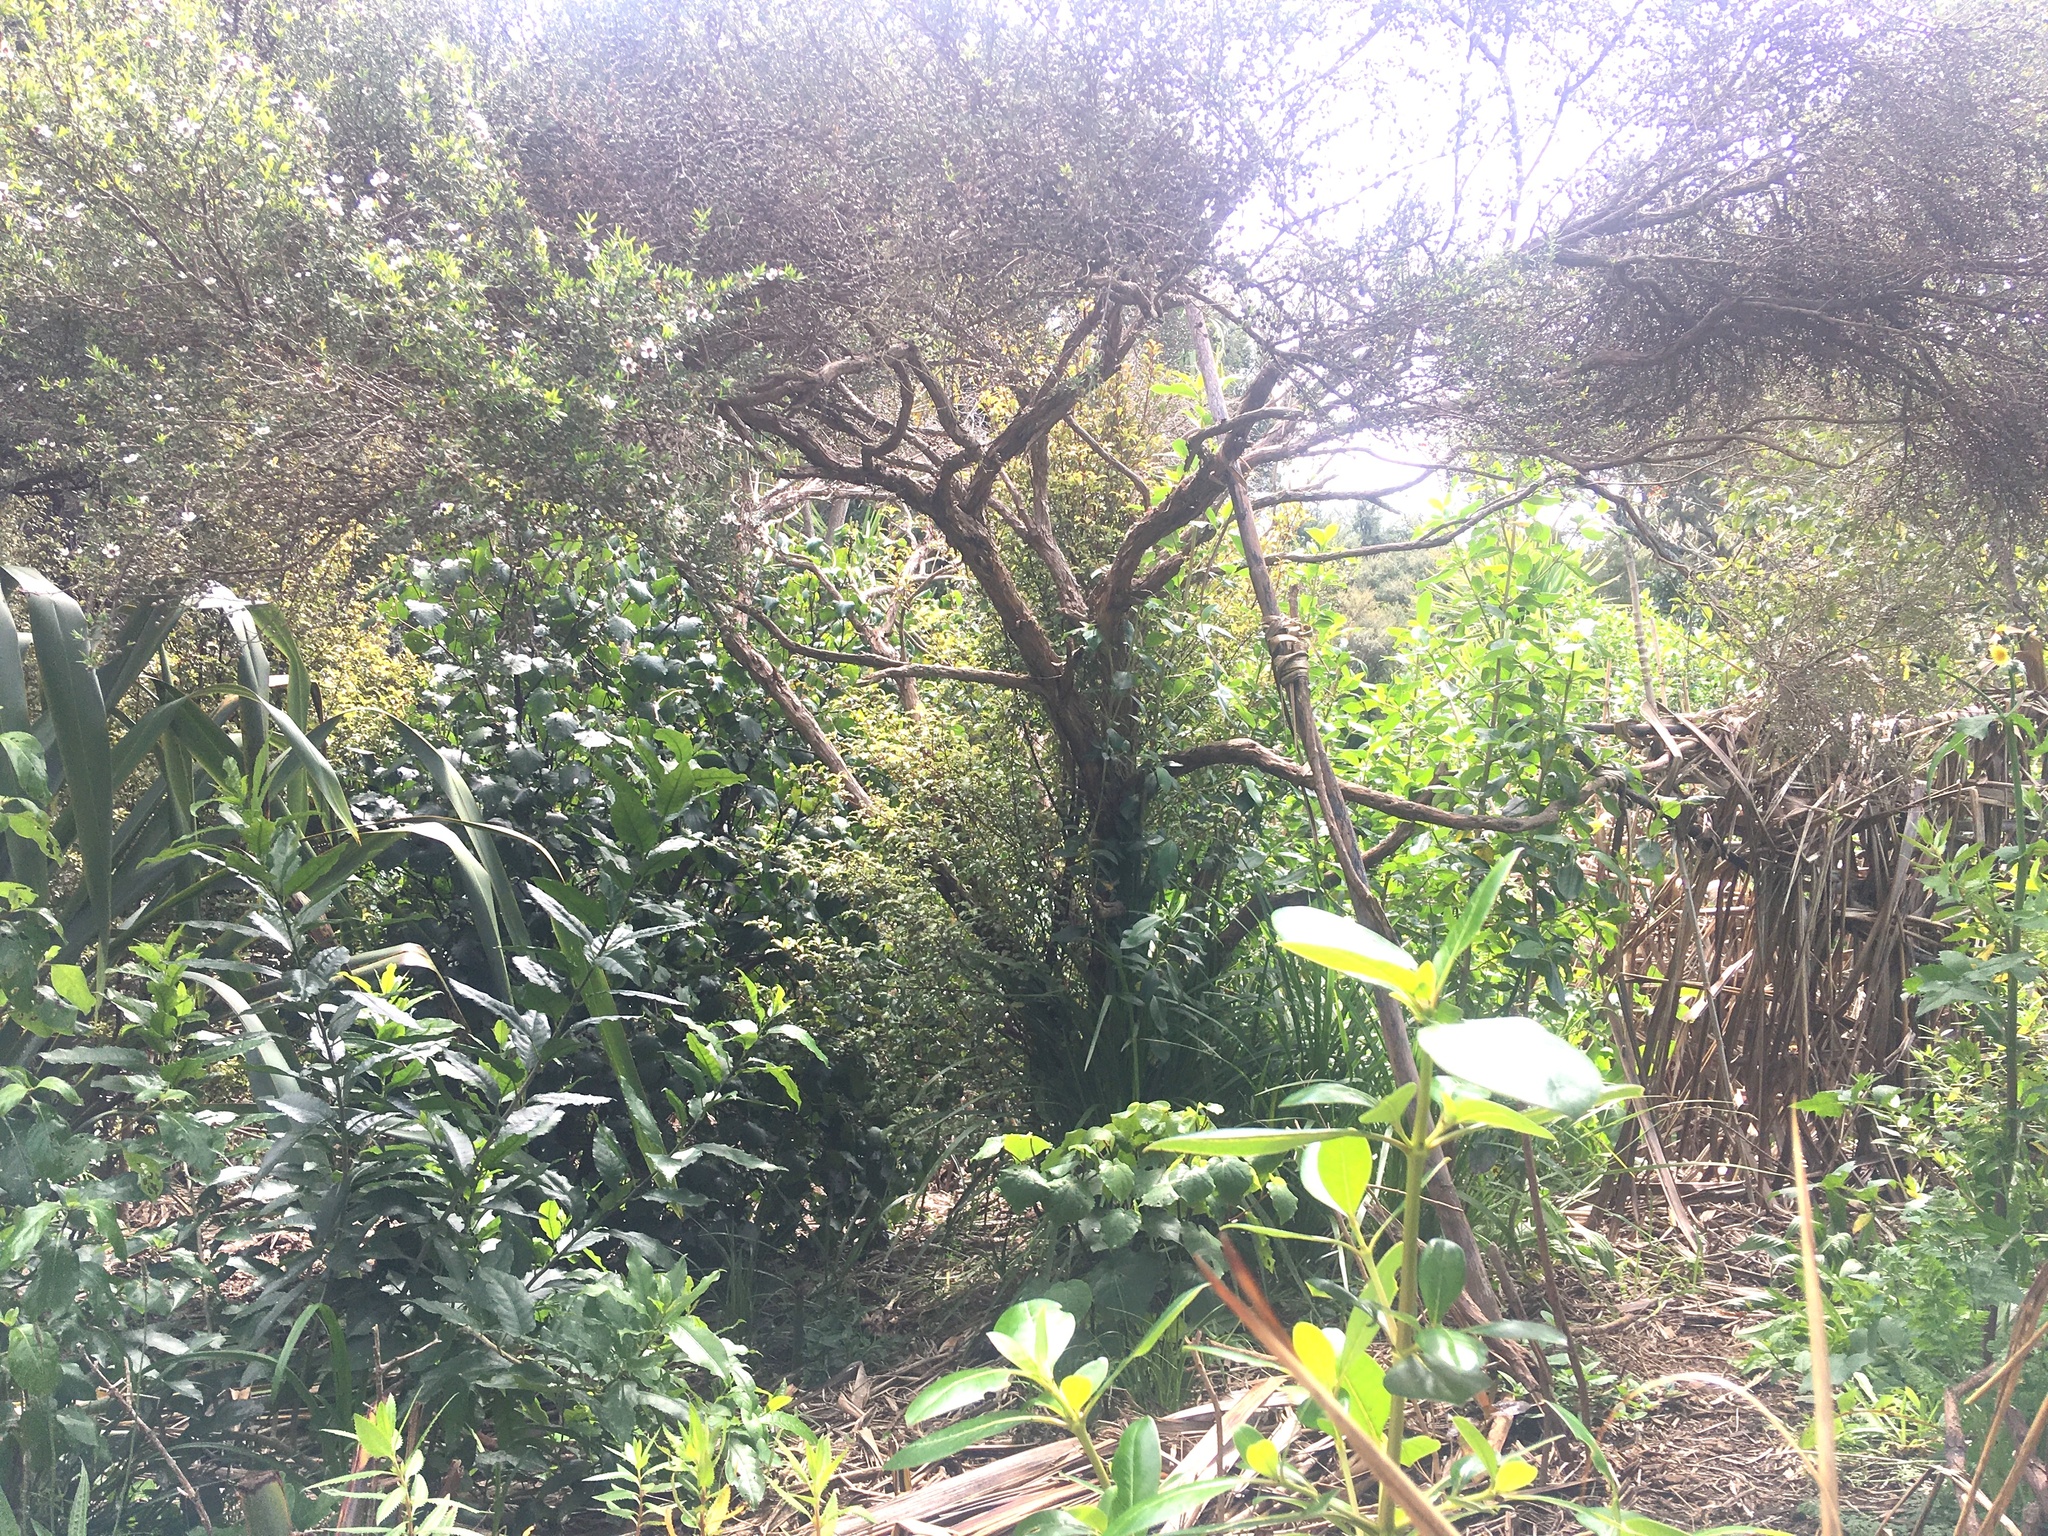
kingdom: Plantae
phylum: Tracheophyta
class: Magnoliopsida
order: Myrtales
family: Myrtaceae
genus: Leptospermum
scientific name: Leptospermum scoparium
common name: Broom tea-tree
